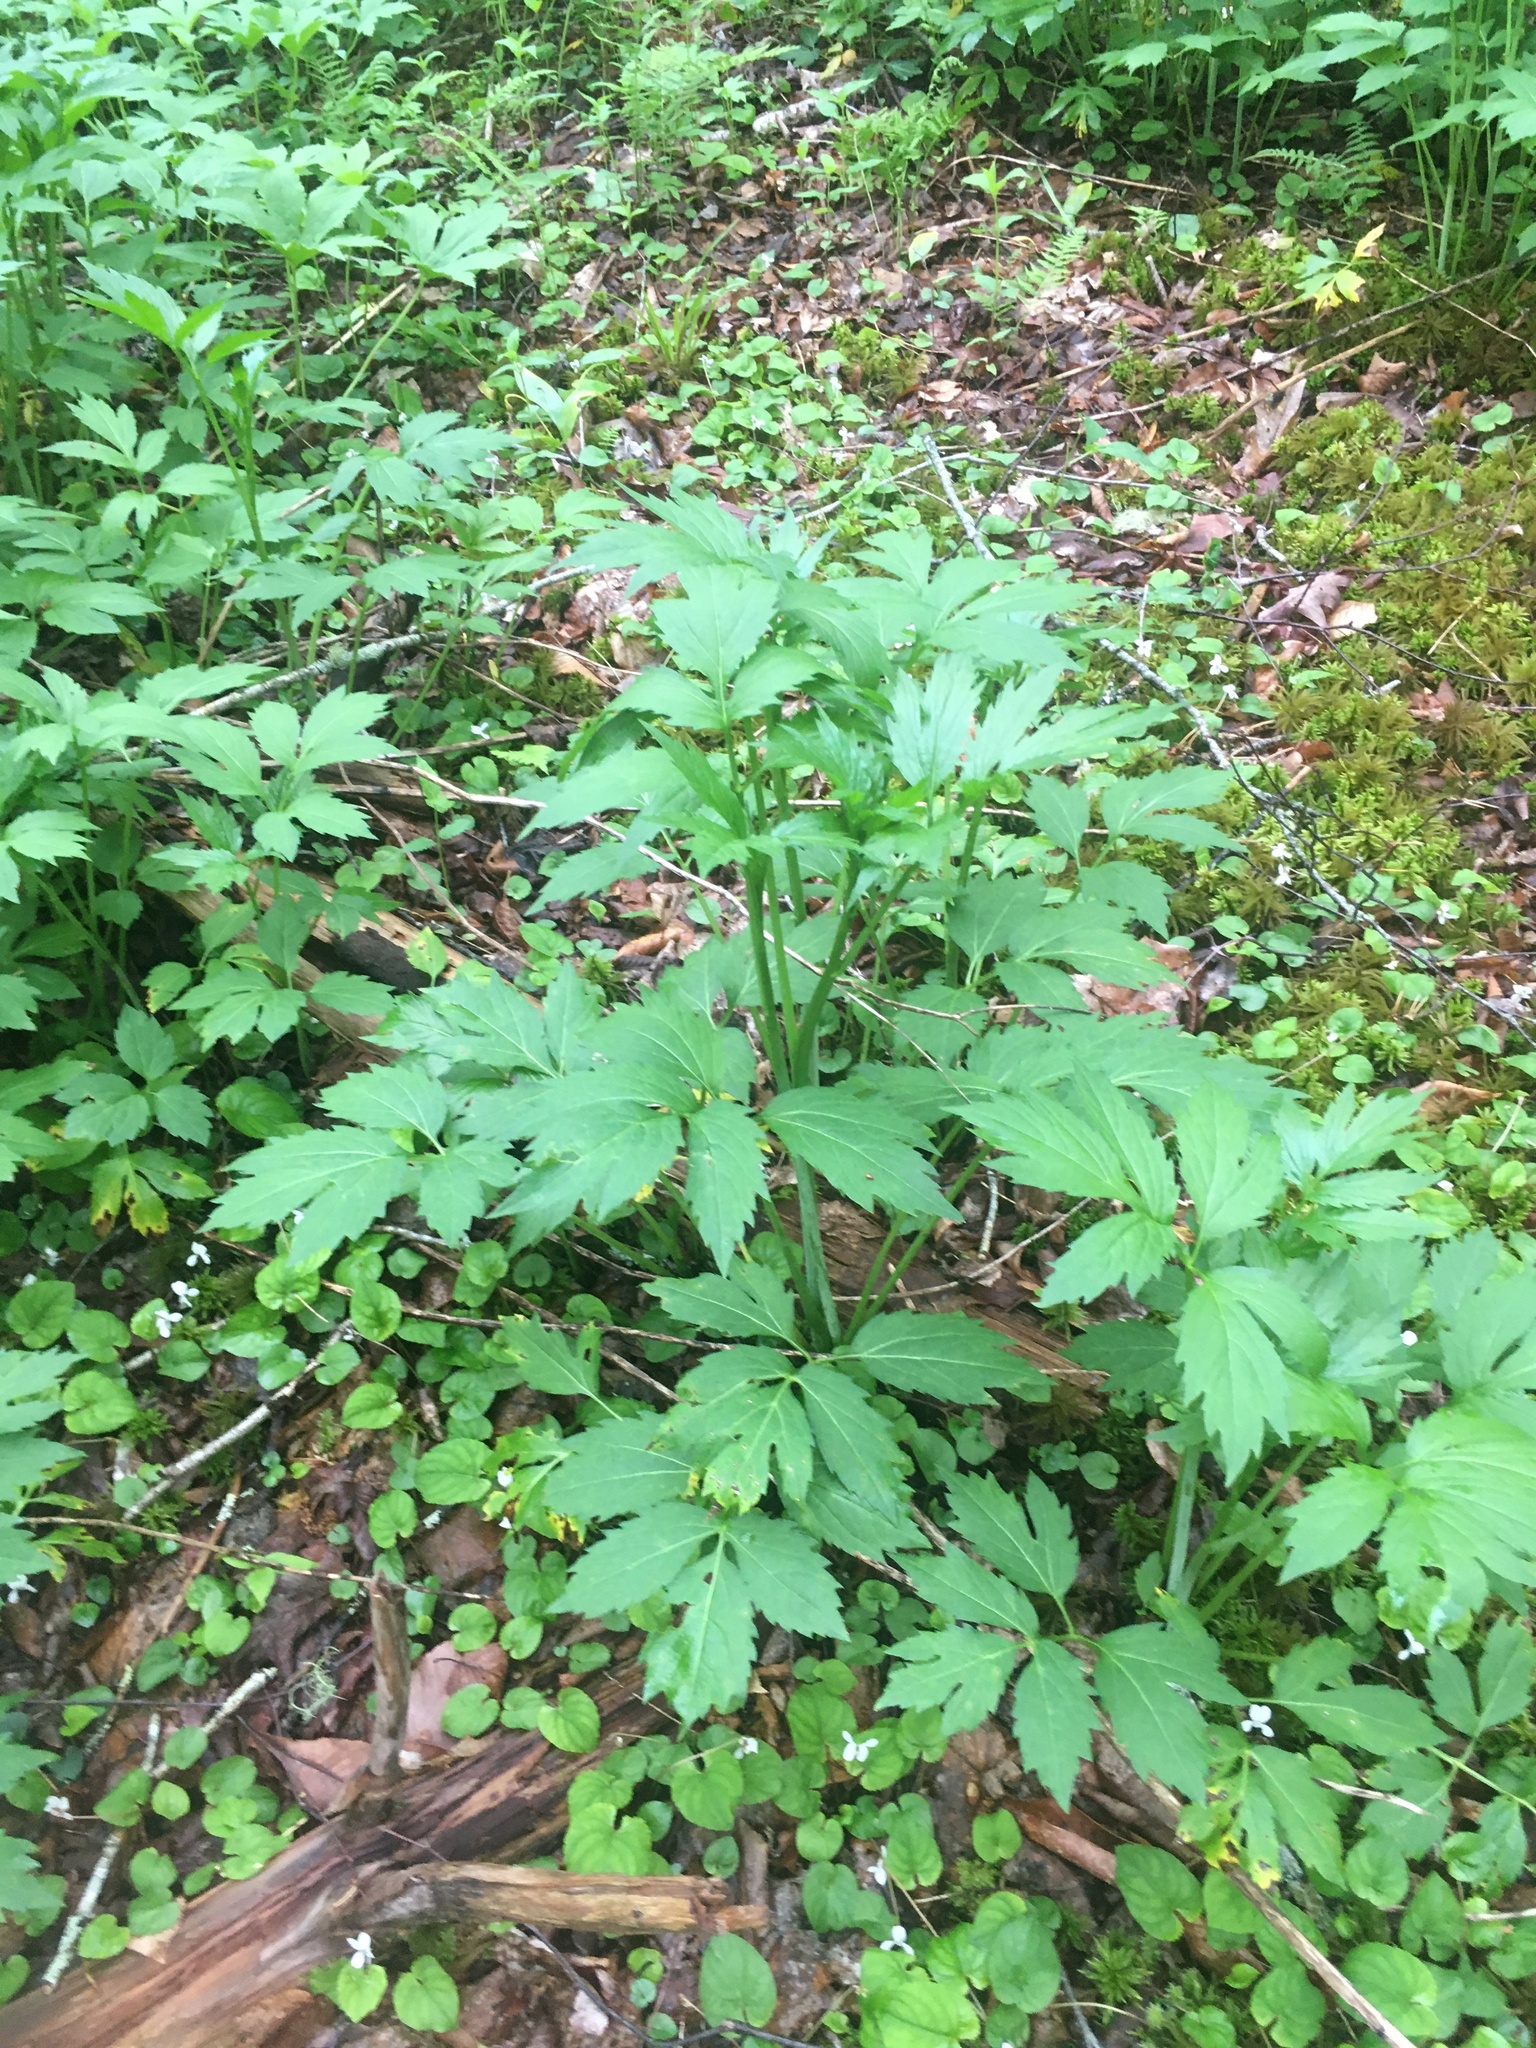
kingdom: Plantae
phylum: Tracheophyta
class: Magnoliopsida
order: Asterales
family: Asteraceae
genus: Rudbeckia
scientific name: Rudbeckia laciniata
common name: Coneflower
